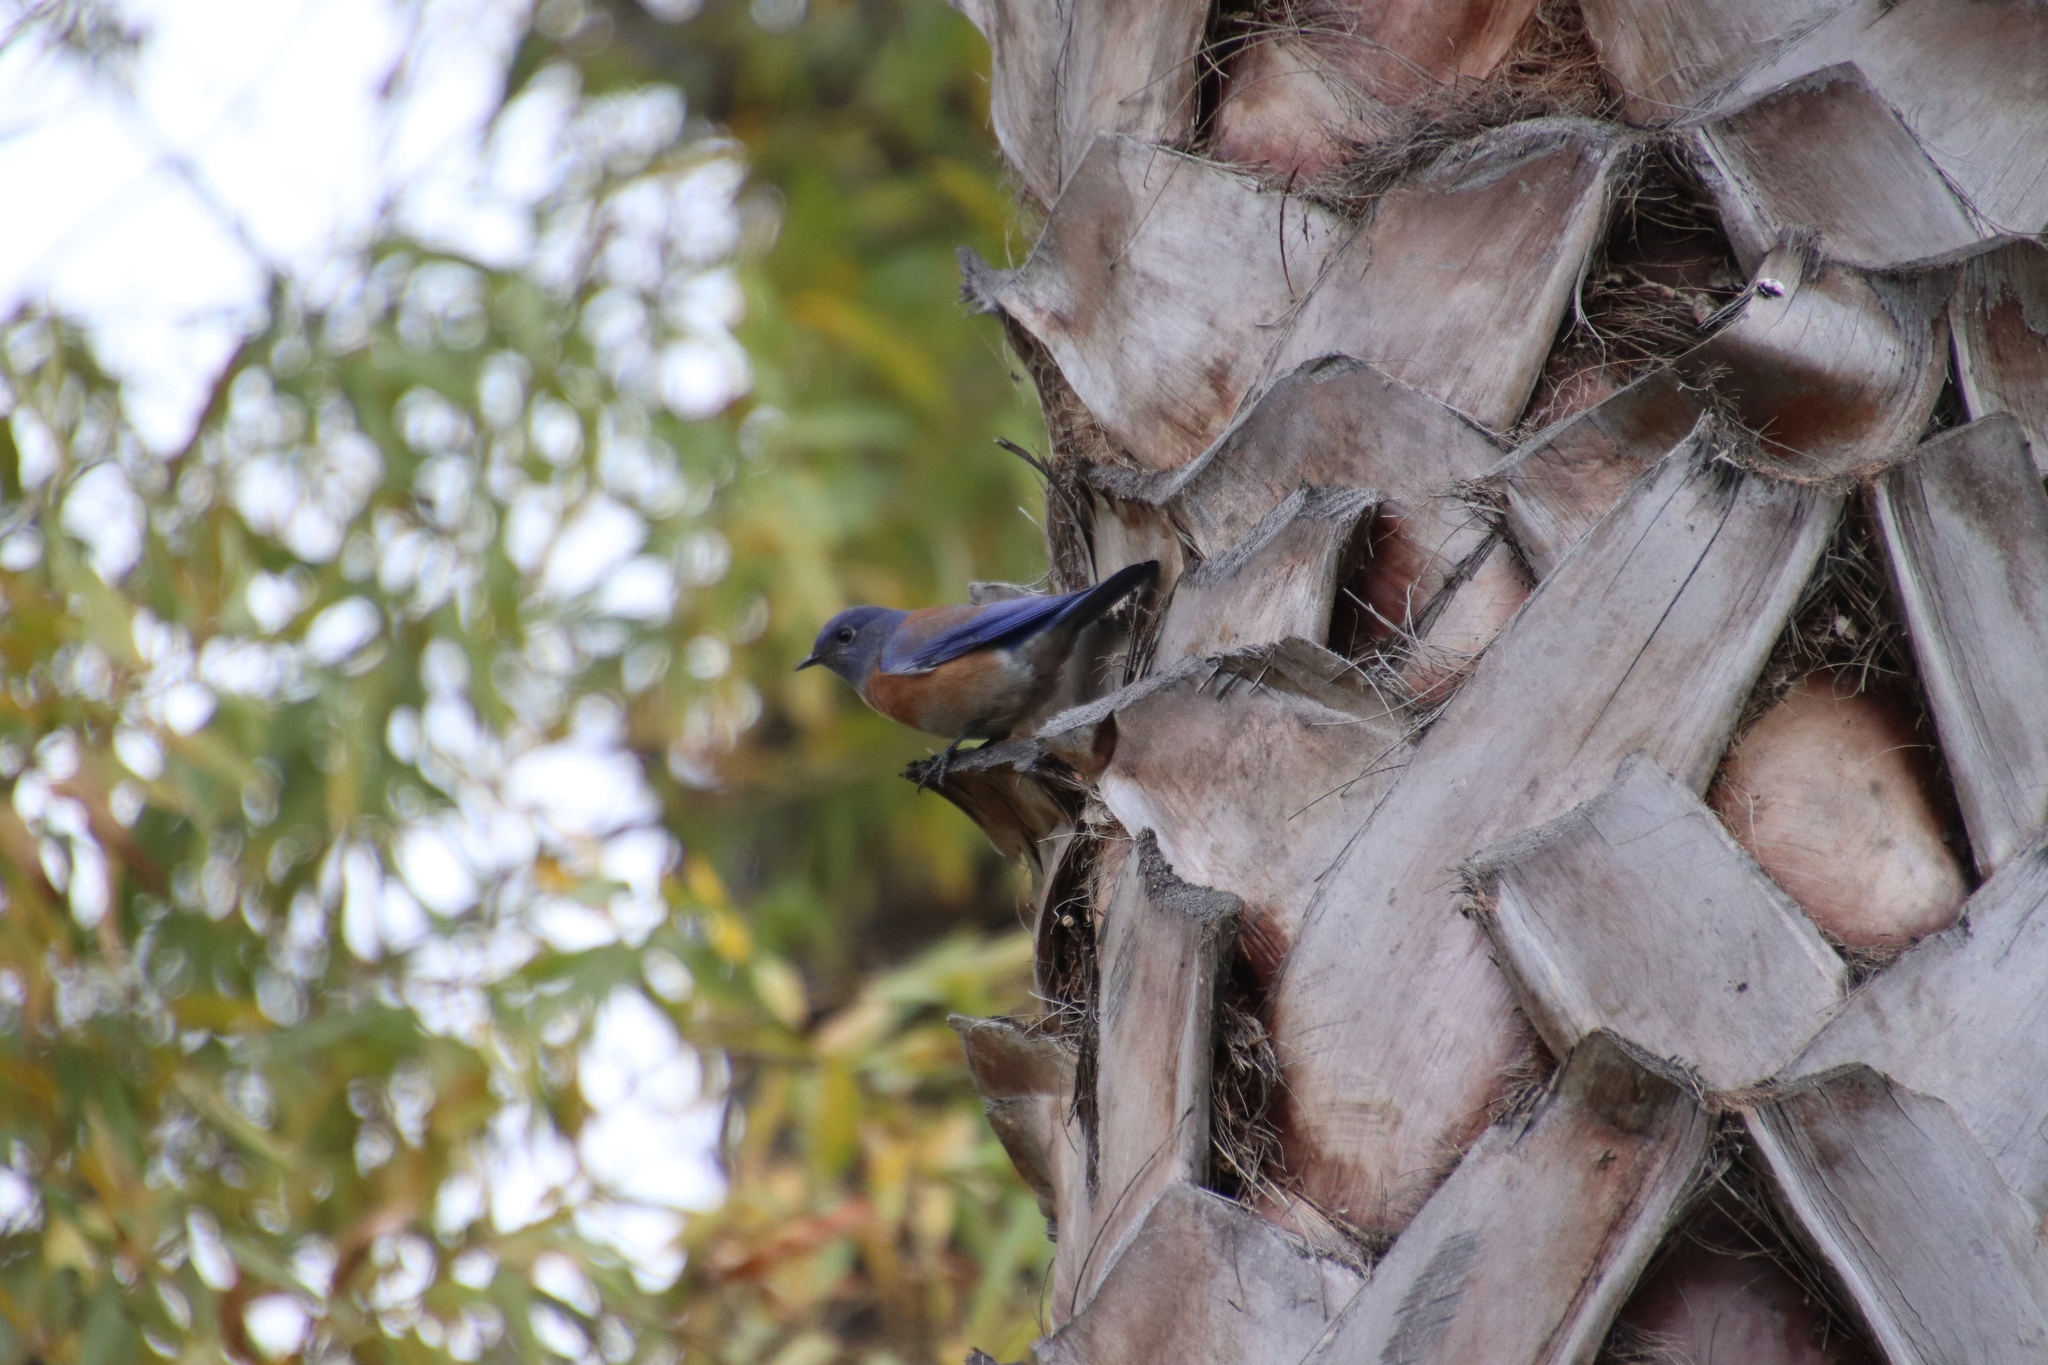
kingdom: Animalia
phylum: Chordata
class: Aves
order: Passeriformes
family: Turdidae
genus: Sialia
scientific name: Sialia mexicana
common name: Western bluebird
